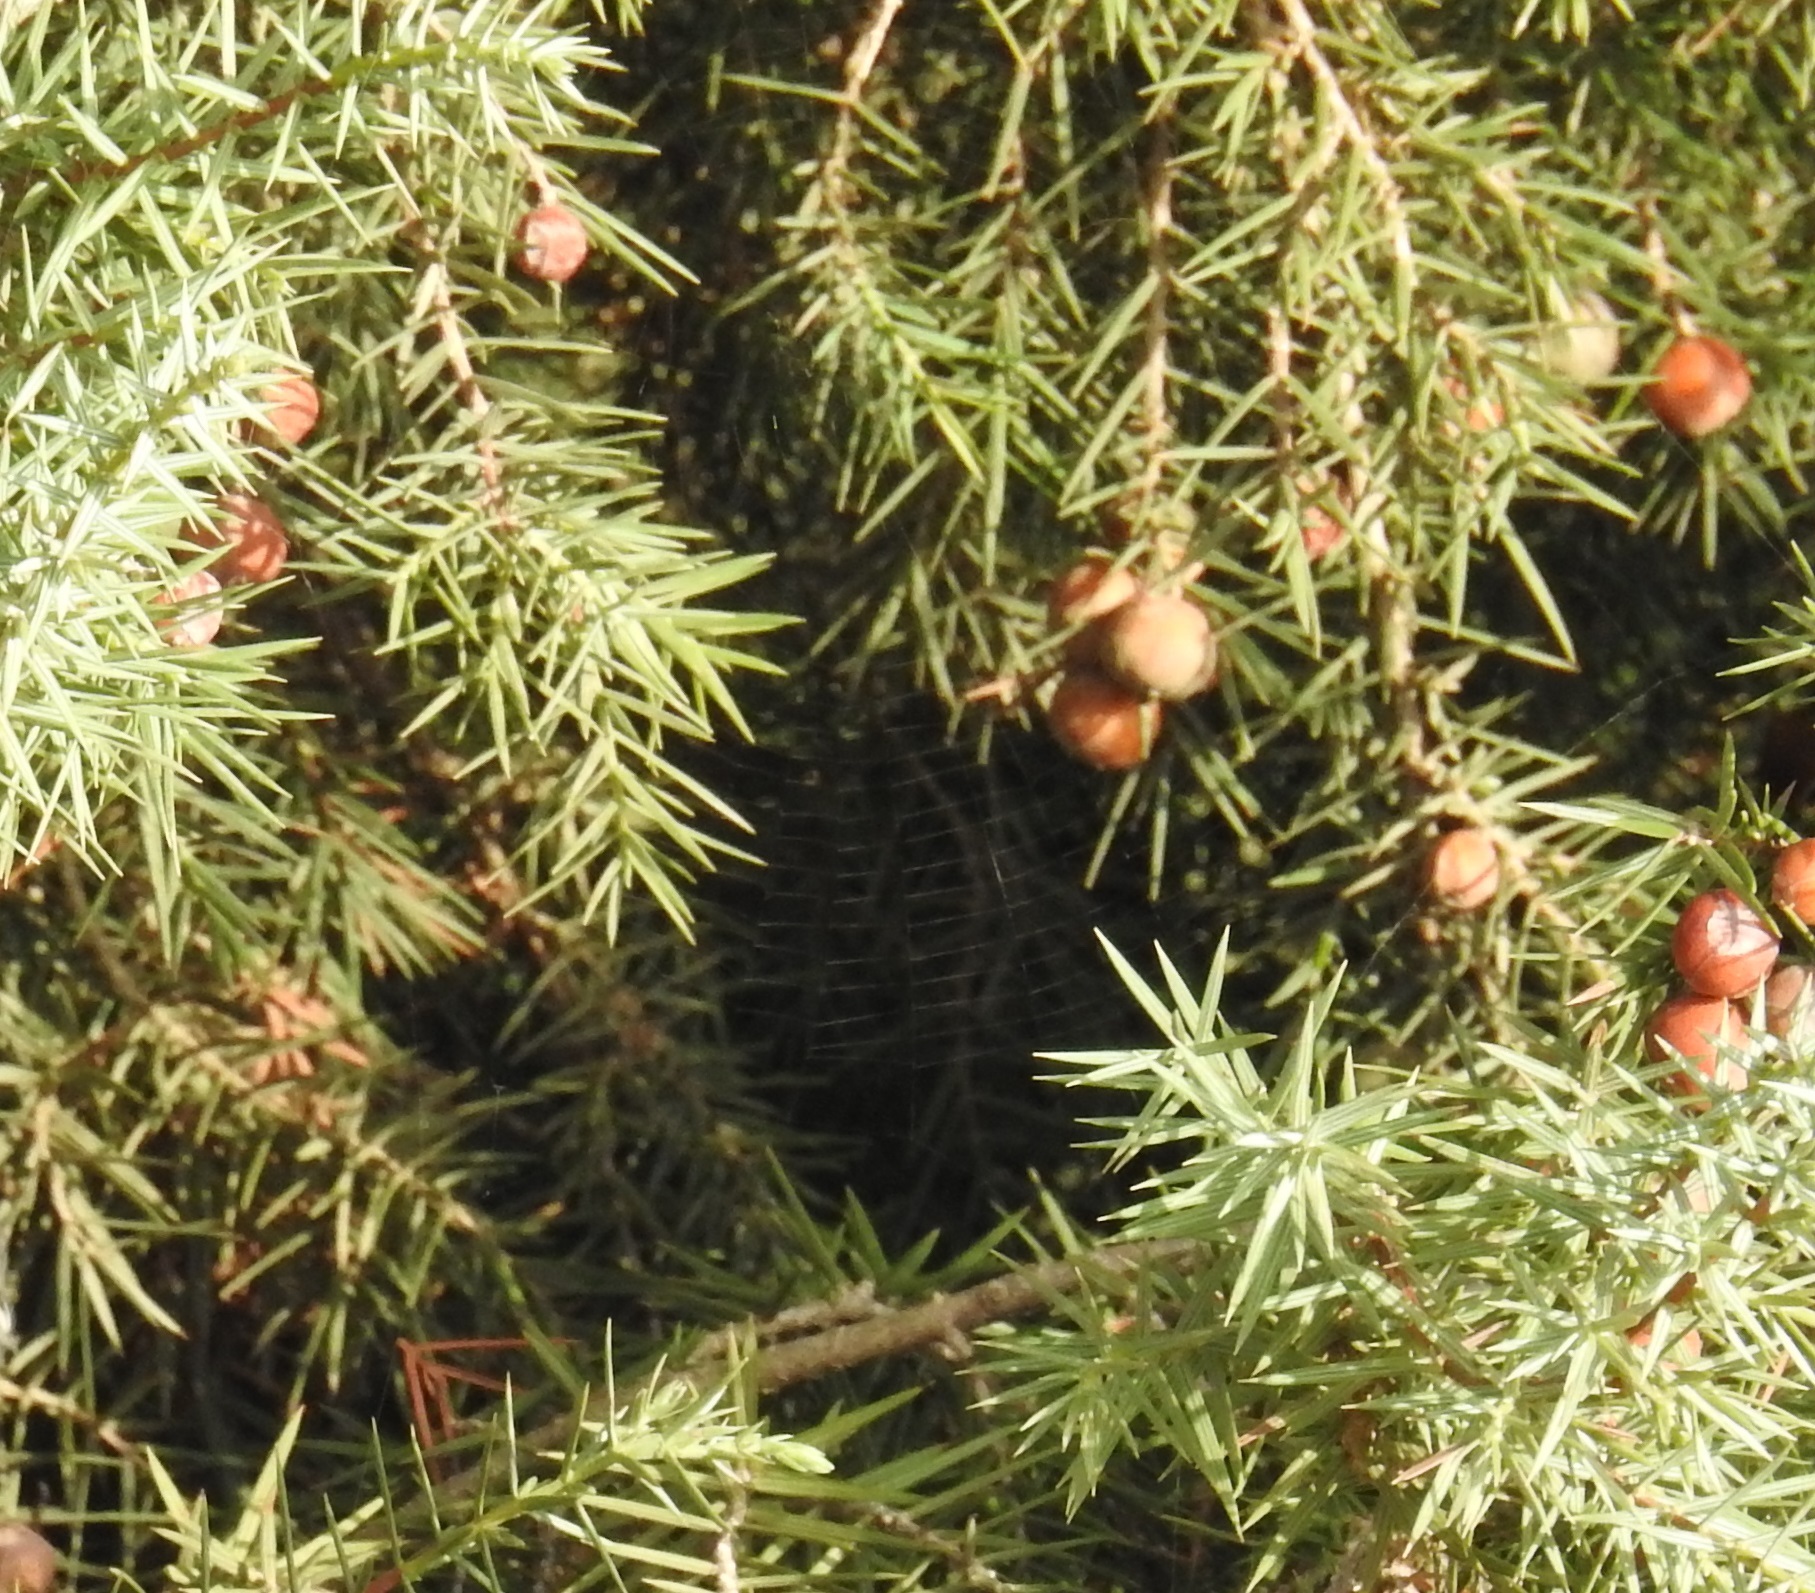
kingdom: Plantae
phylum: Tracheophyta
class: Pinopsida
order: Pinales
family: Cupressaceae
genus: Juniperus
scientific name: Juniperus oxycedrus
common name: Prickly juniper
